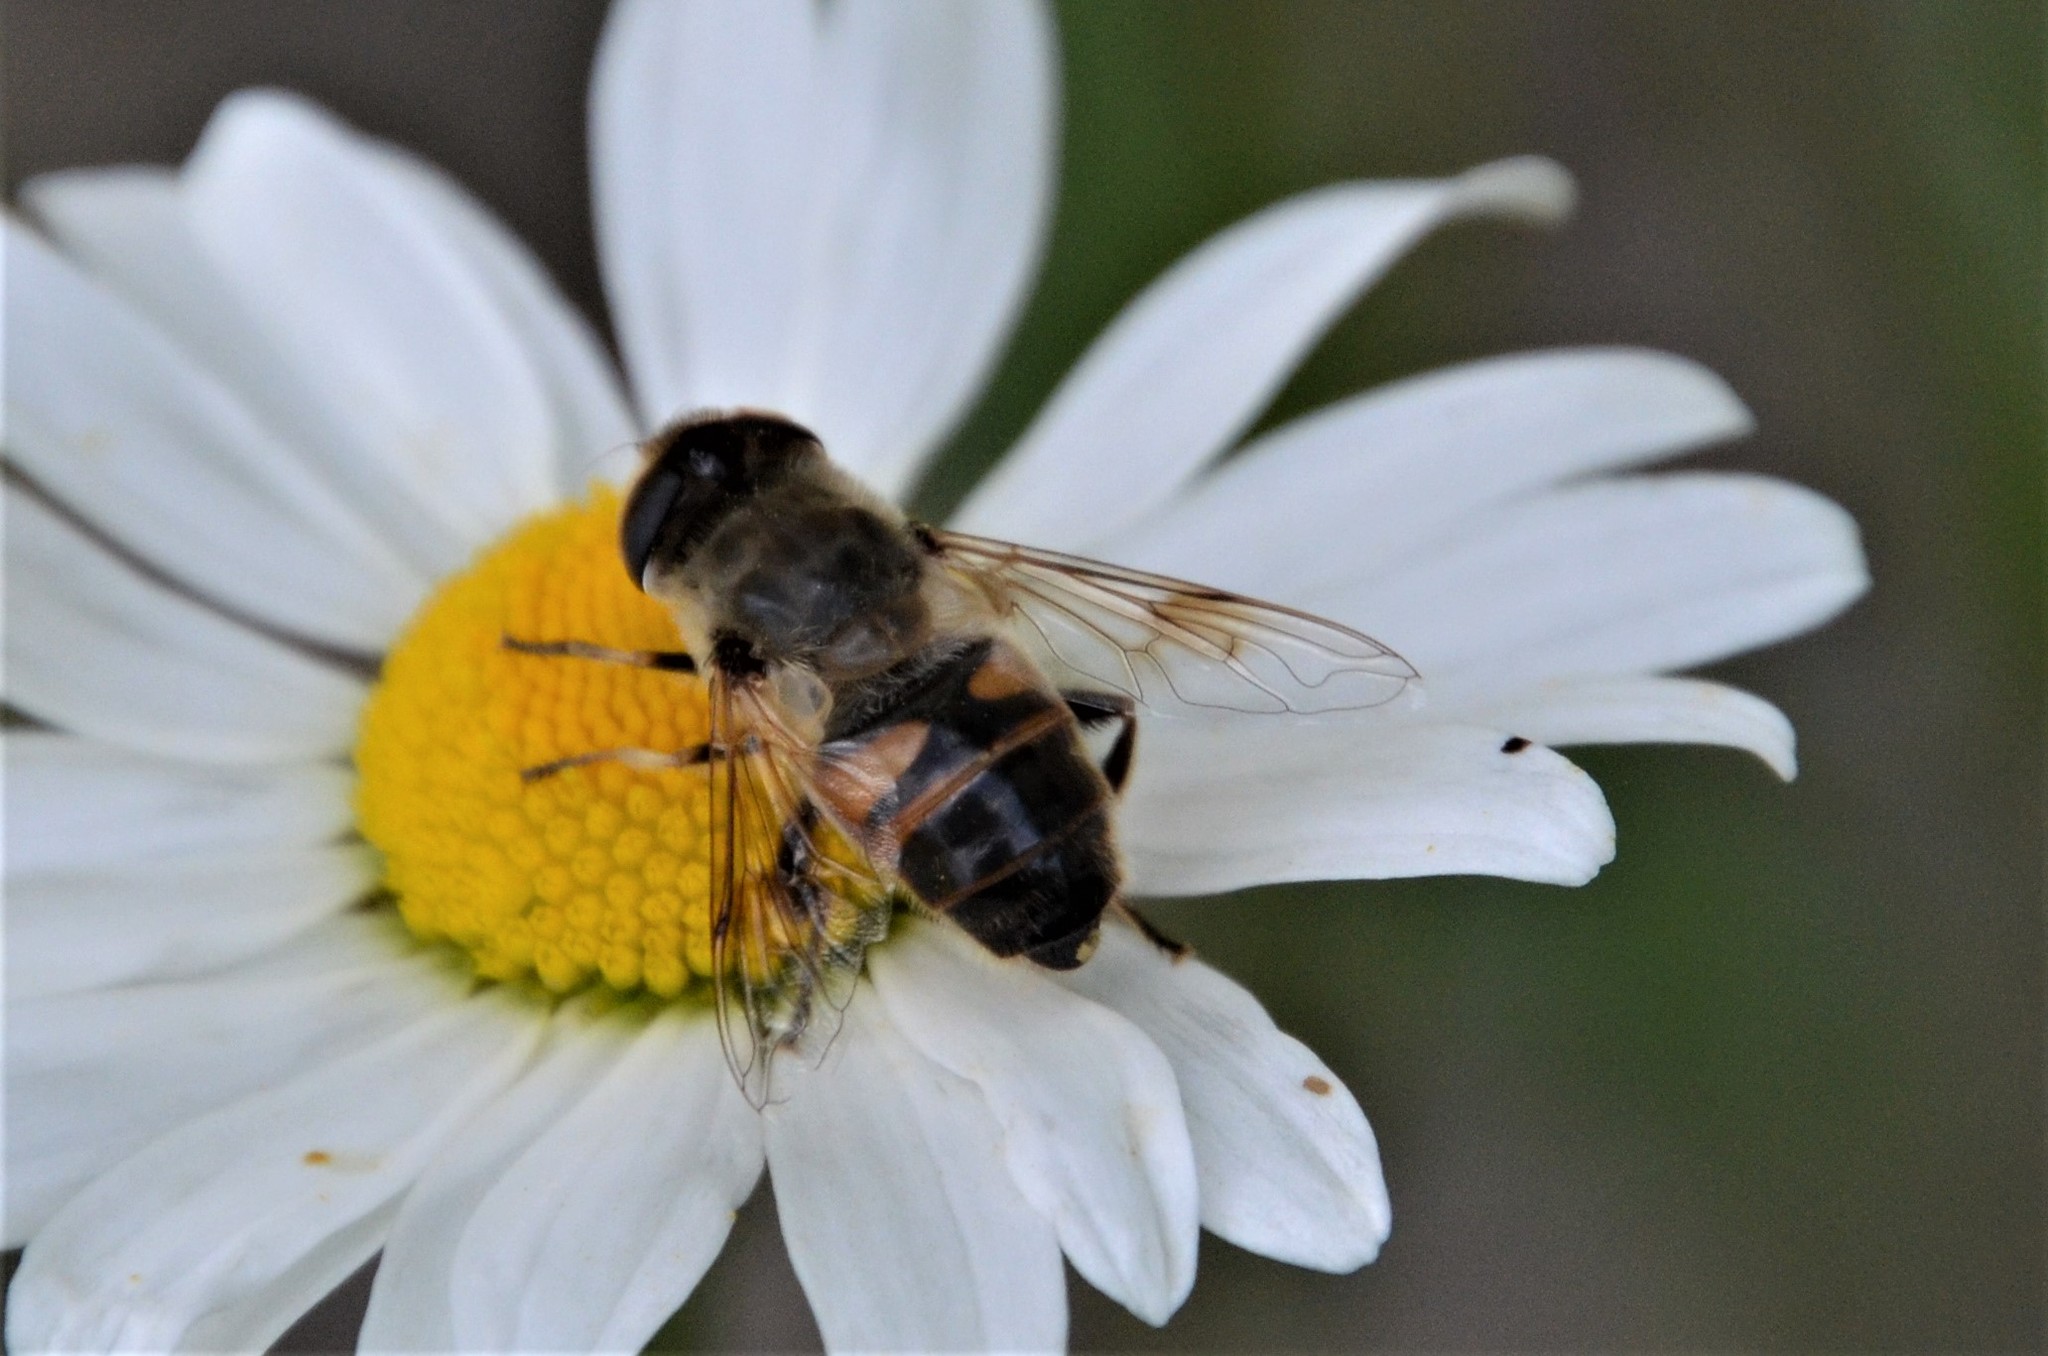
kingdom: Animalia
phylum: Arthropoda
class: Insecta
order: Diptera
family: Syrphidae
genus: Eristalis
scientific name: Eristalis tenax
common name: Drone fly
